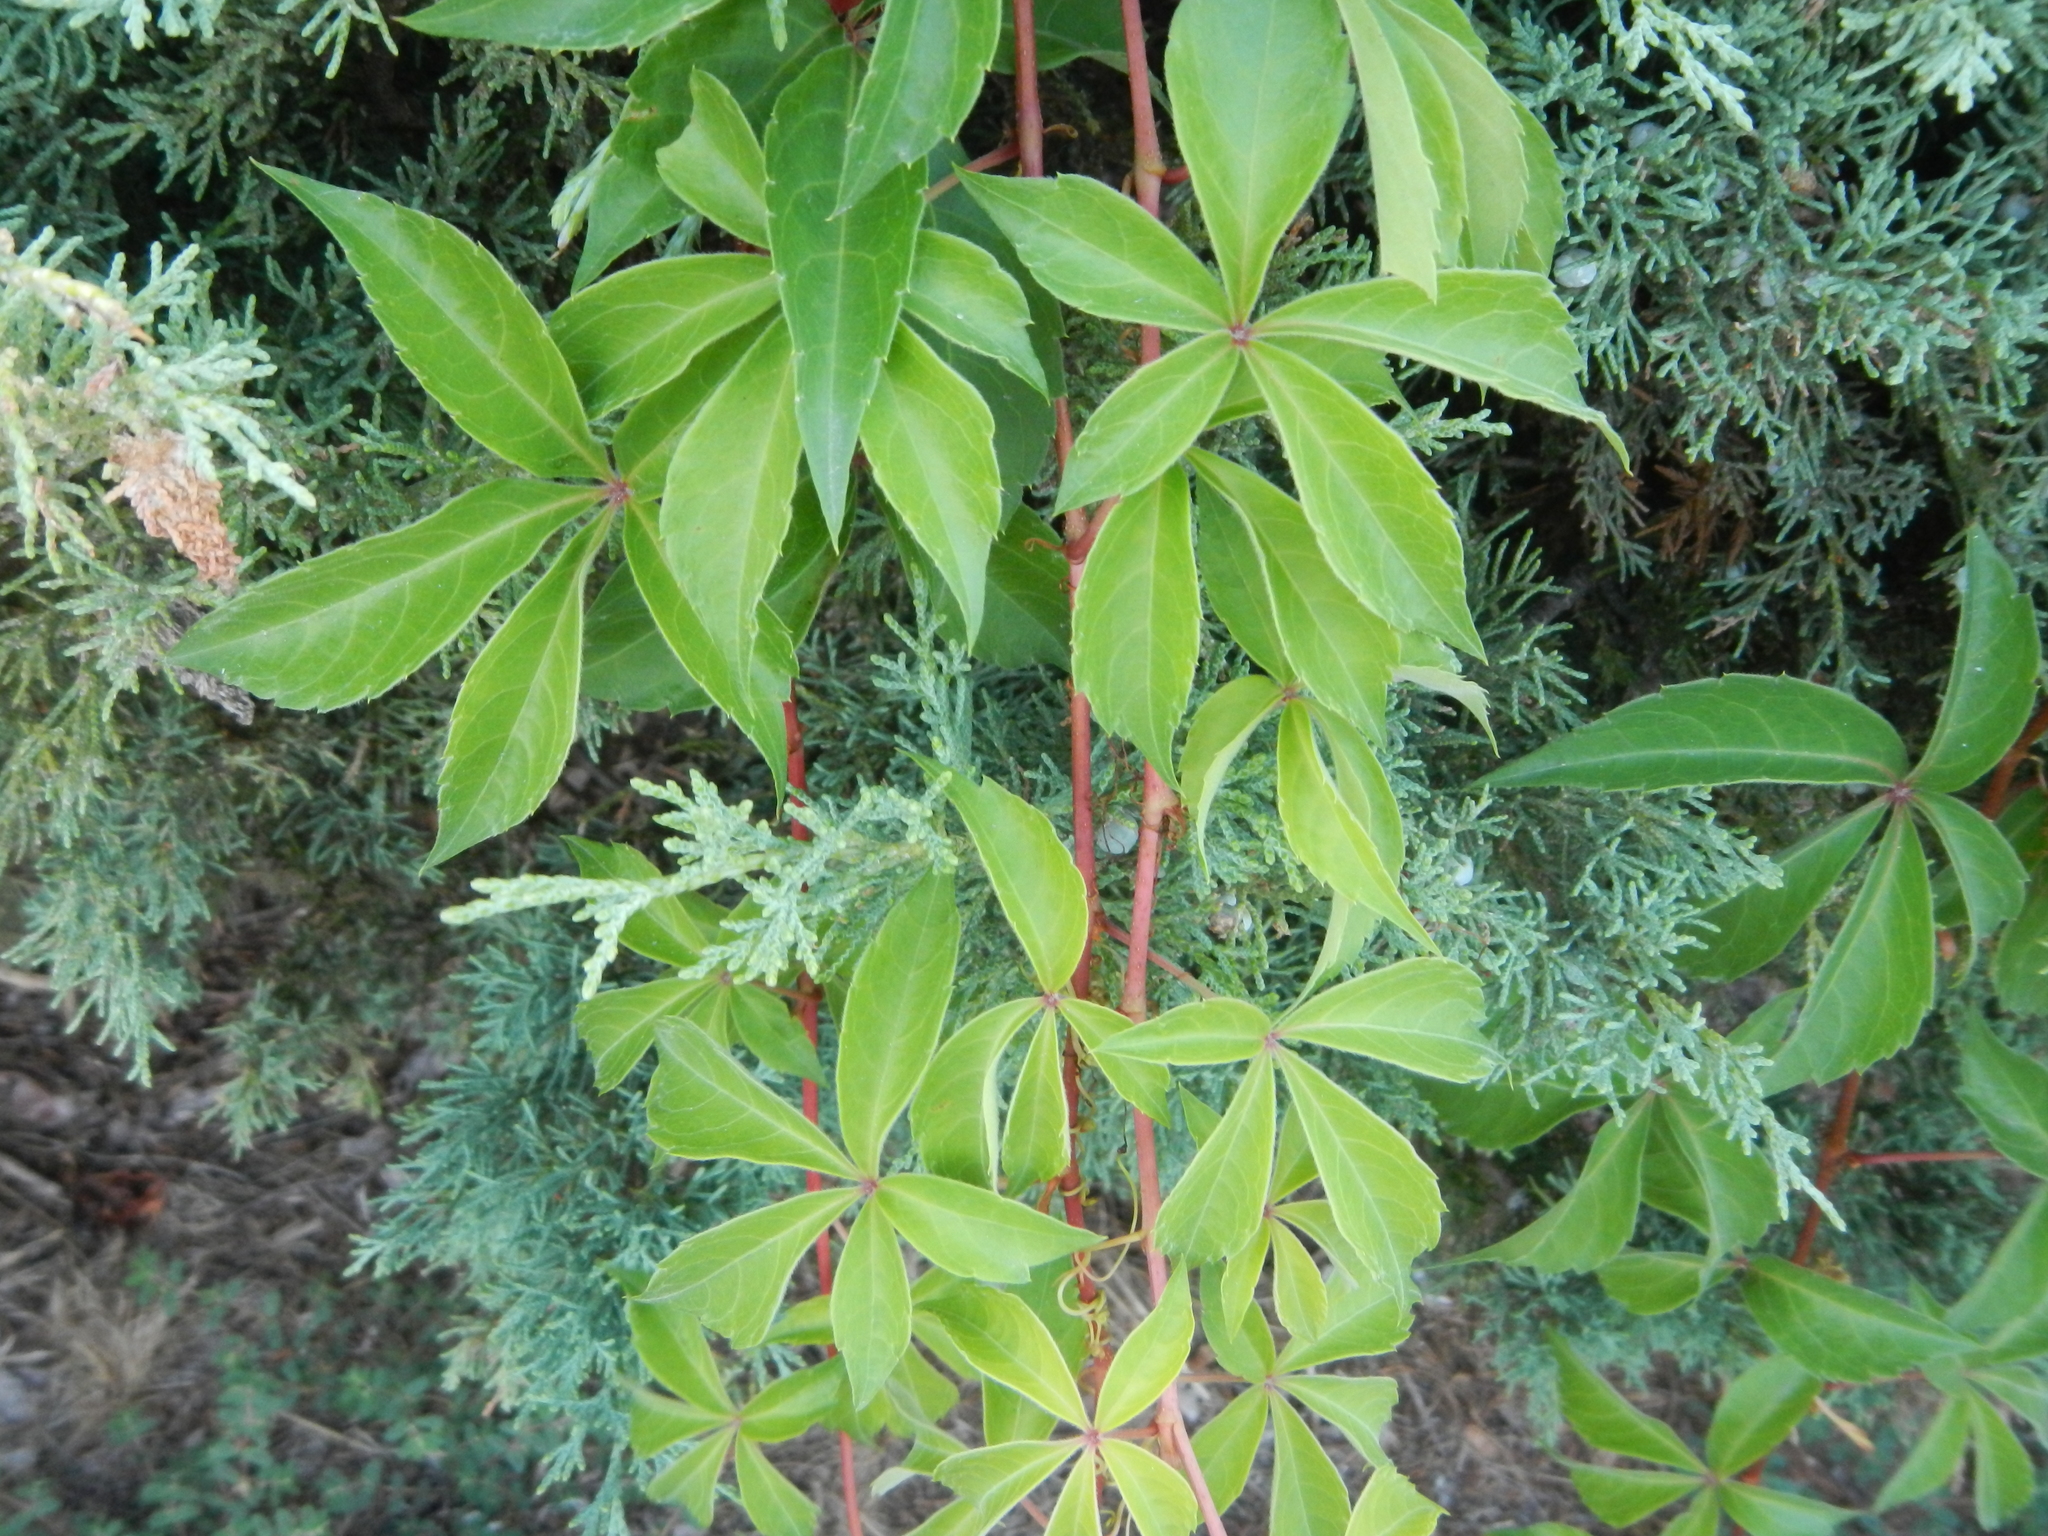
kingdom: Plantae
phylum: Tracheophyta
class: Magnoliopsida
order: Vitales
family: Vitaceae
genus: Parthenocissus
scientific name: Parthenocissus quinquefolia
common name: Virginia-creeper
